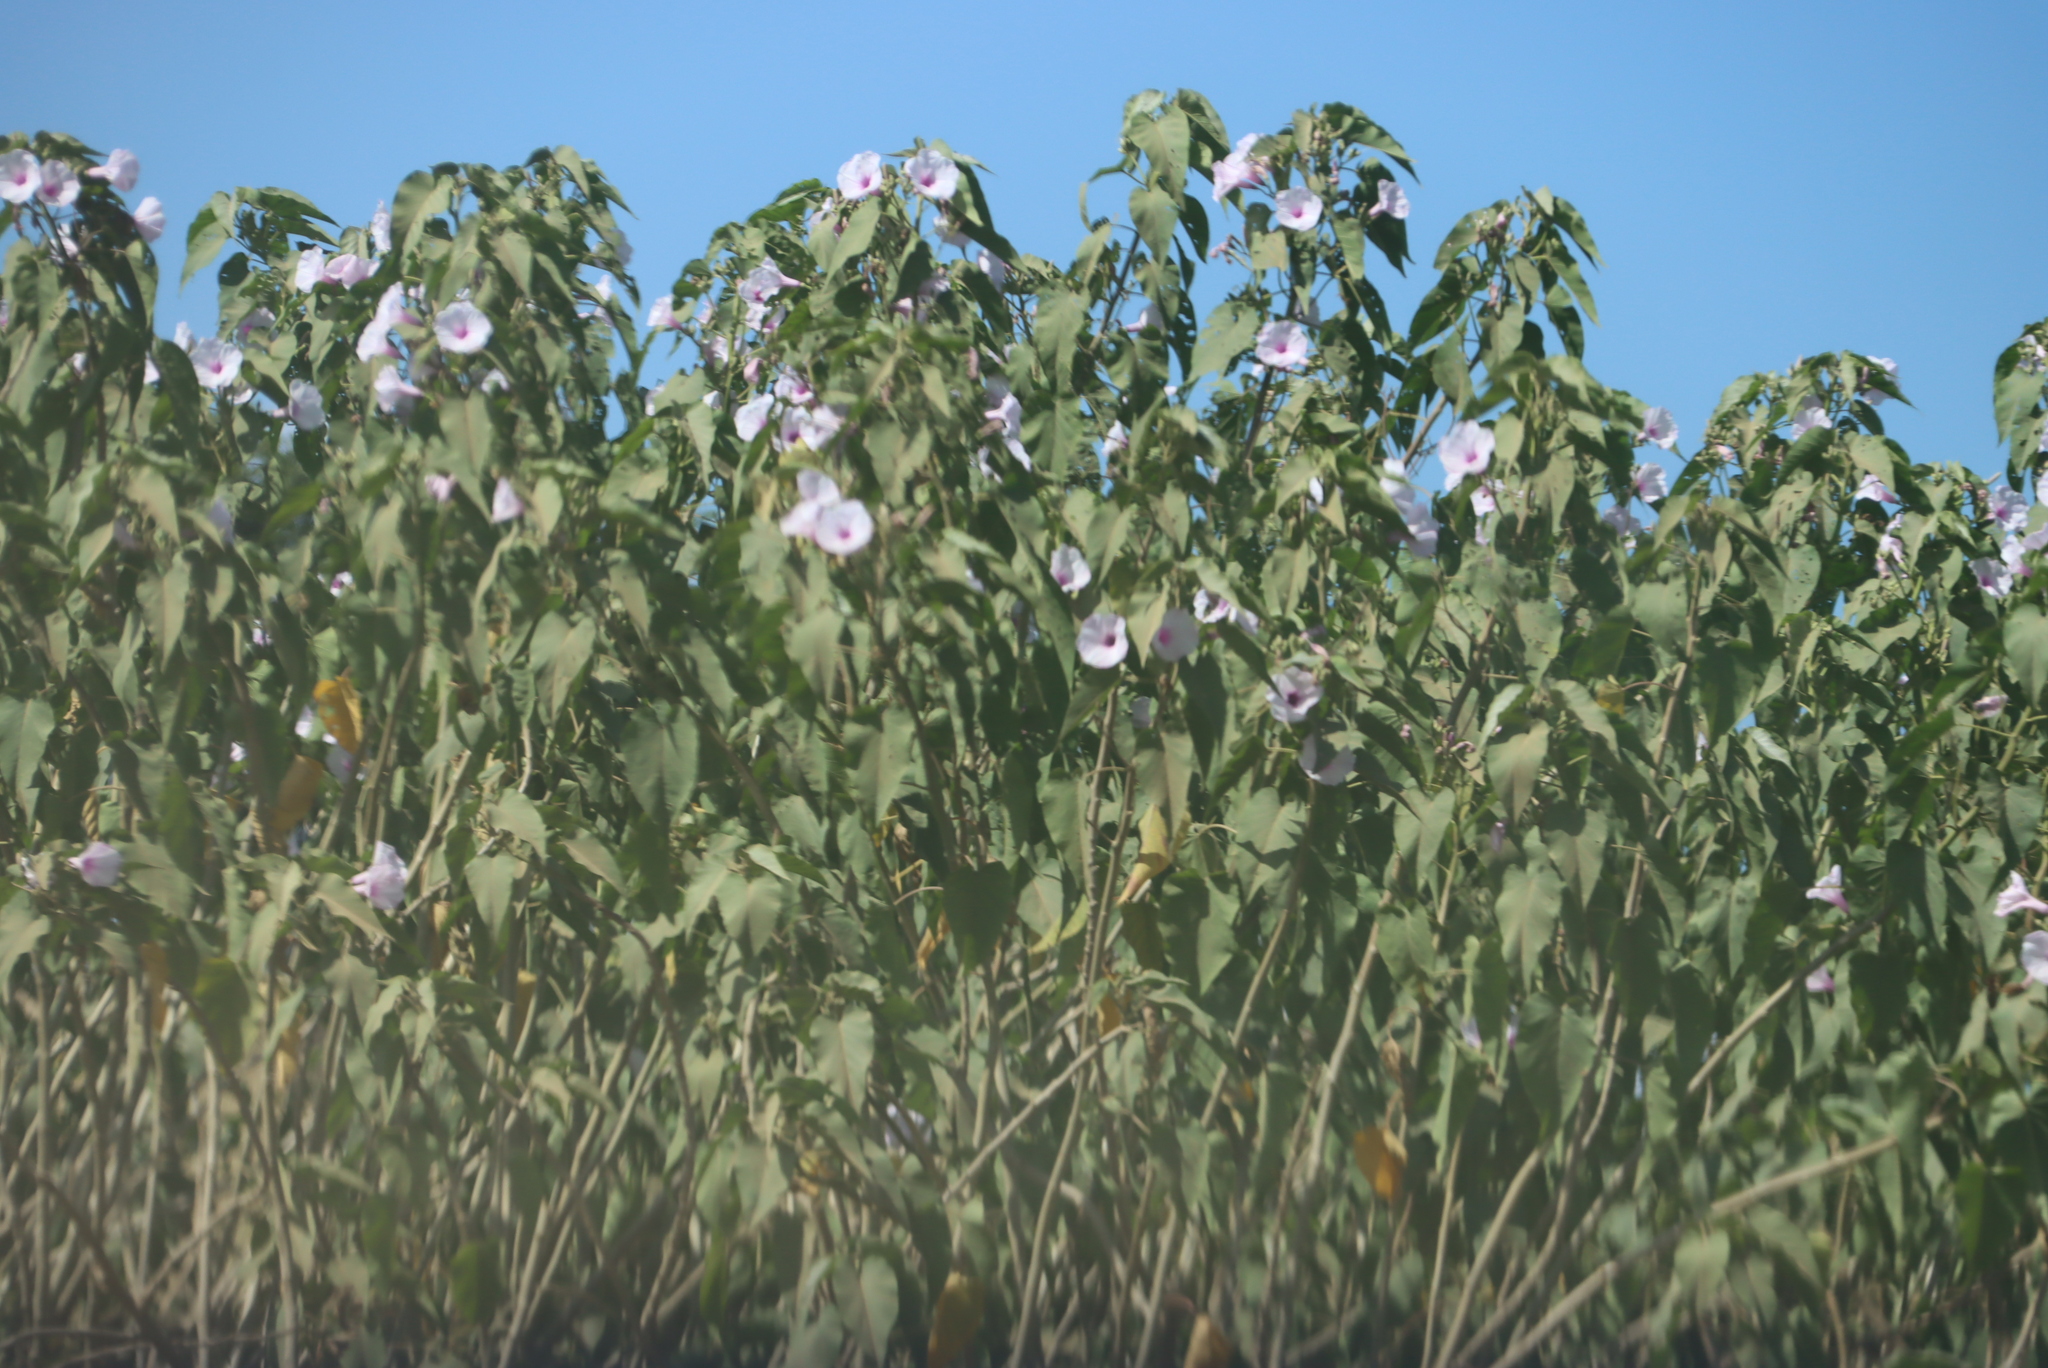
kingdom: Plantae
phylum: Tracheophyta
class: Magnoliopsida
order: Solanales
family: Convolvulaceae
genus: Ipomoea
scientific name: Ipomoea carnea
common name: Morning-glory
